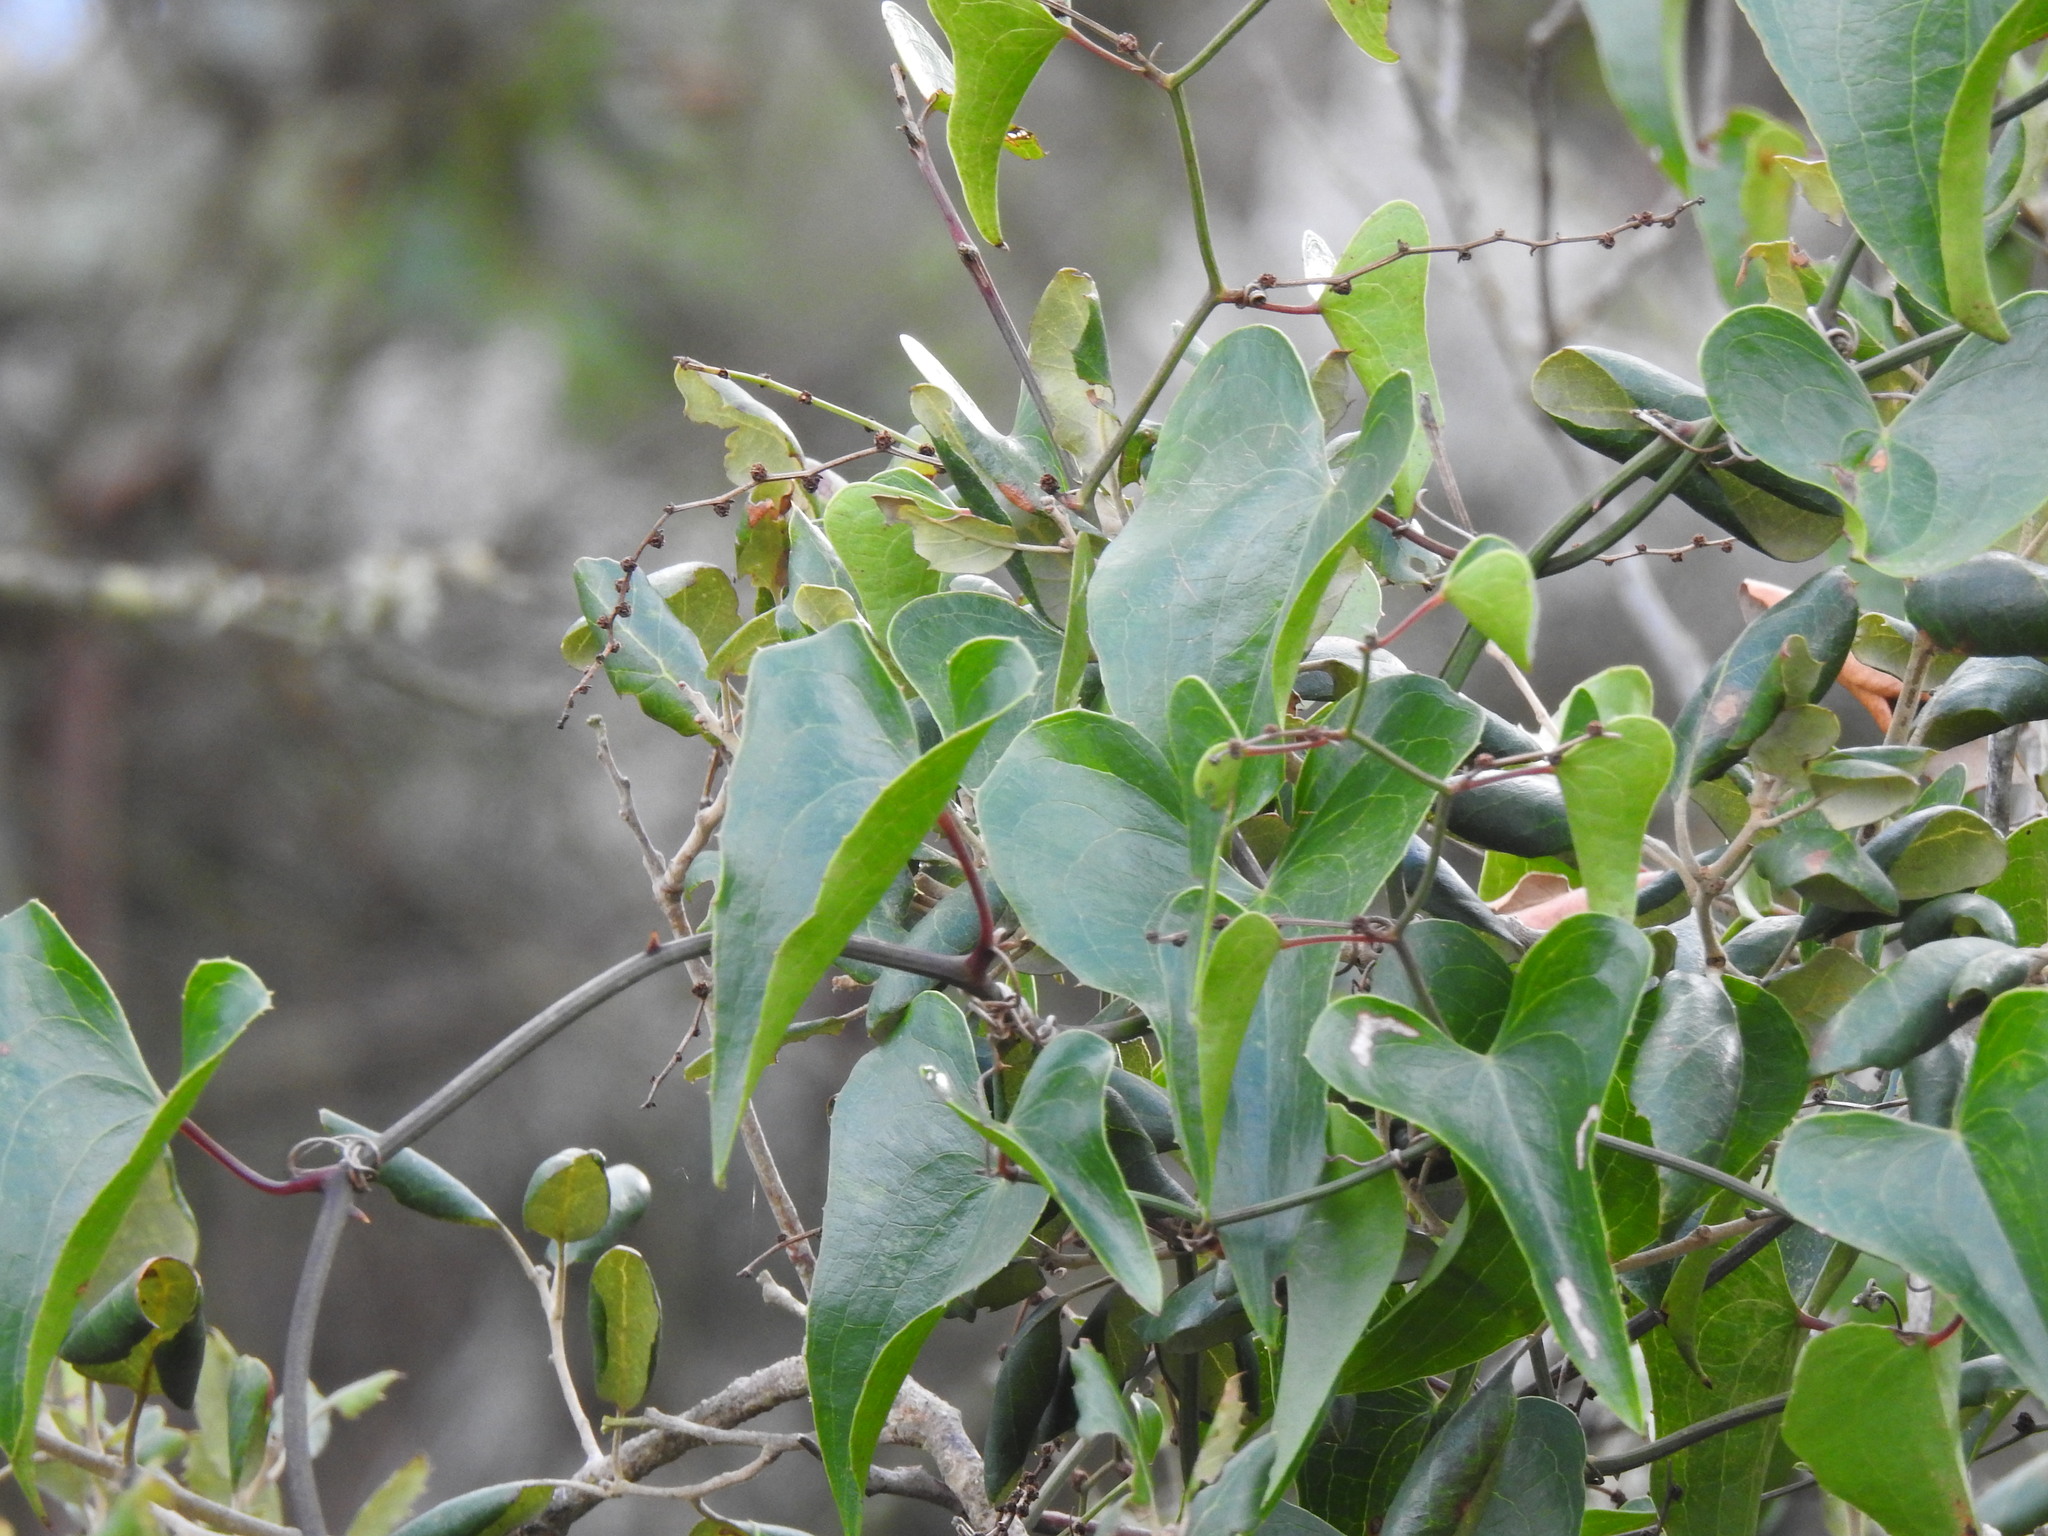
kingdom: Plantae
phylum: Tracheophyta
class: Liliopsida
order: Liliales
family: Smilacaceae
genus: Smilax
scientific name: Smilax aspera
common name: Common smilax
